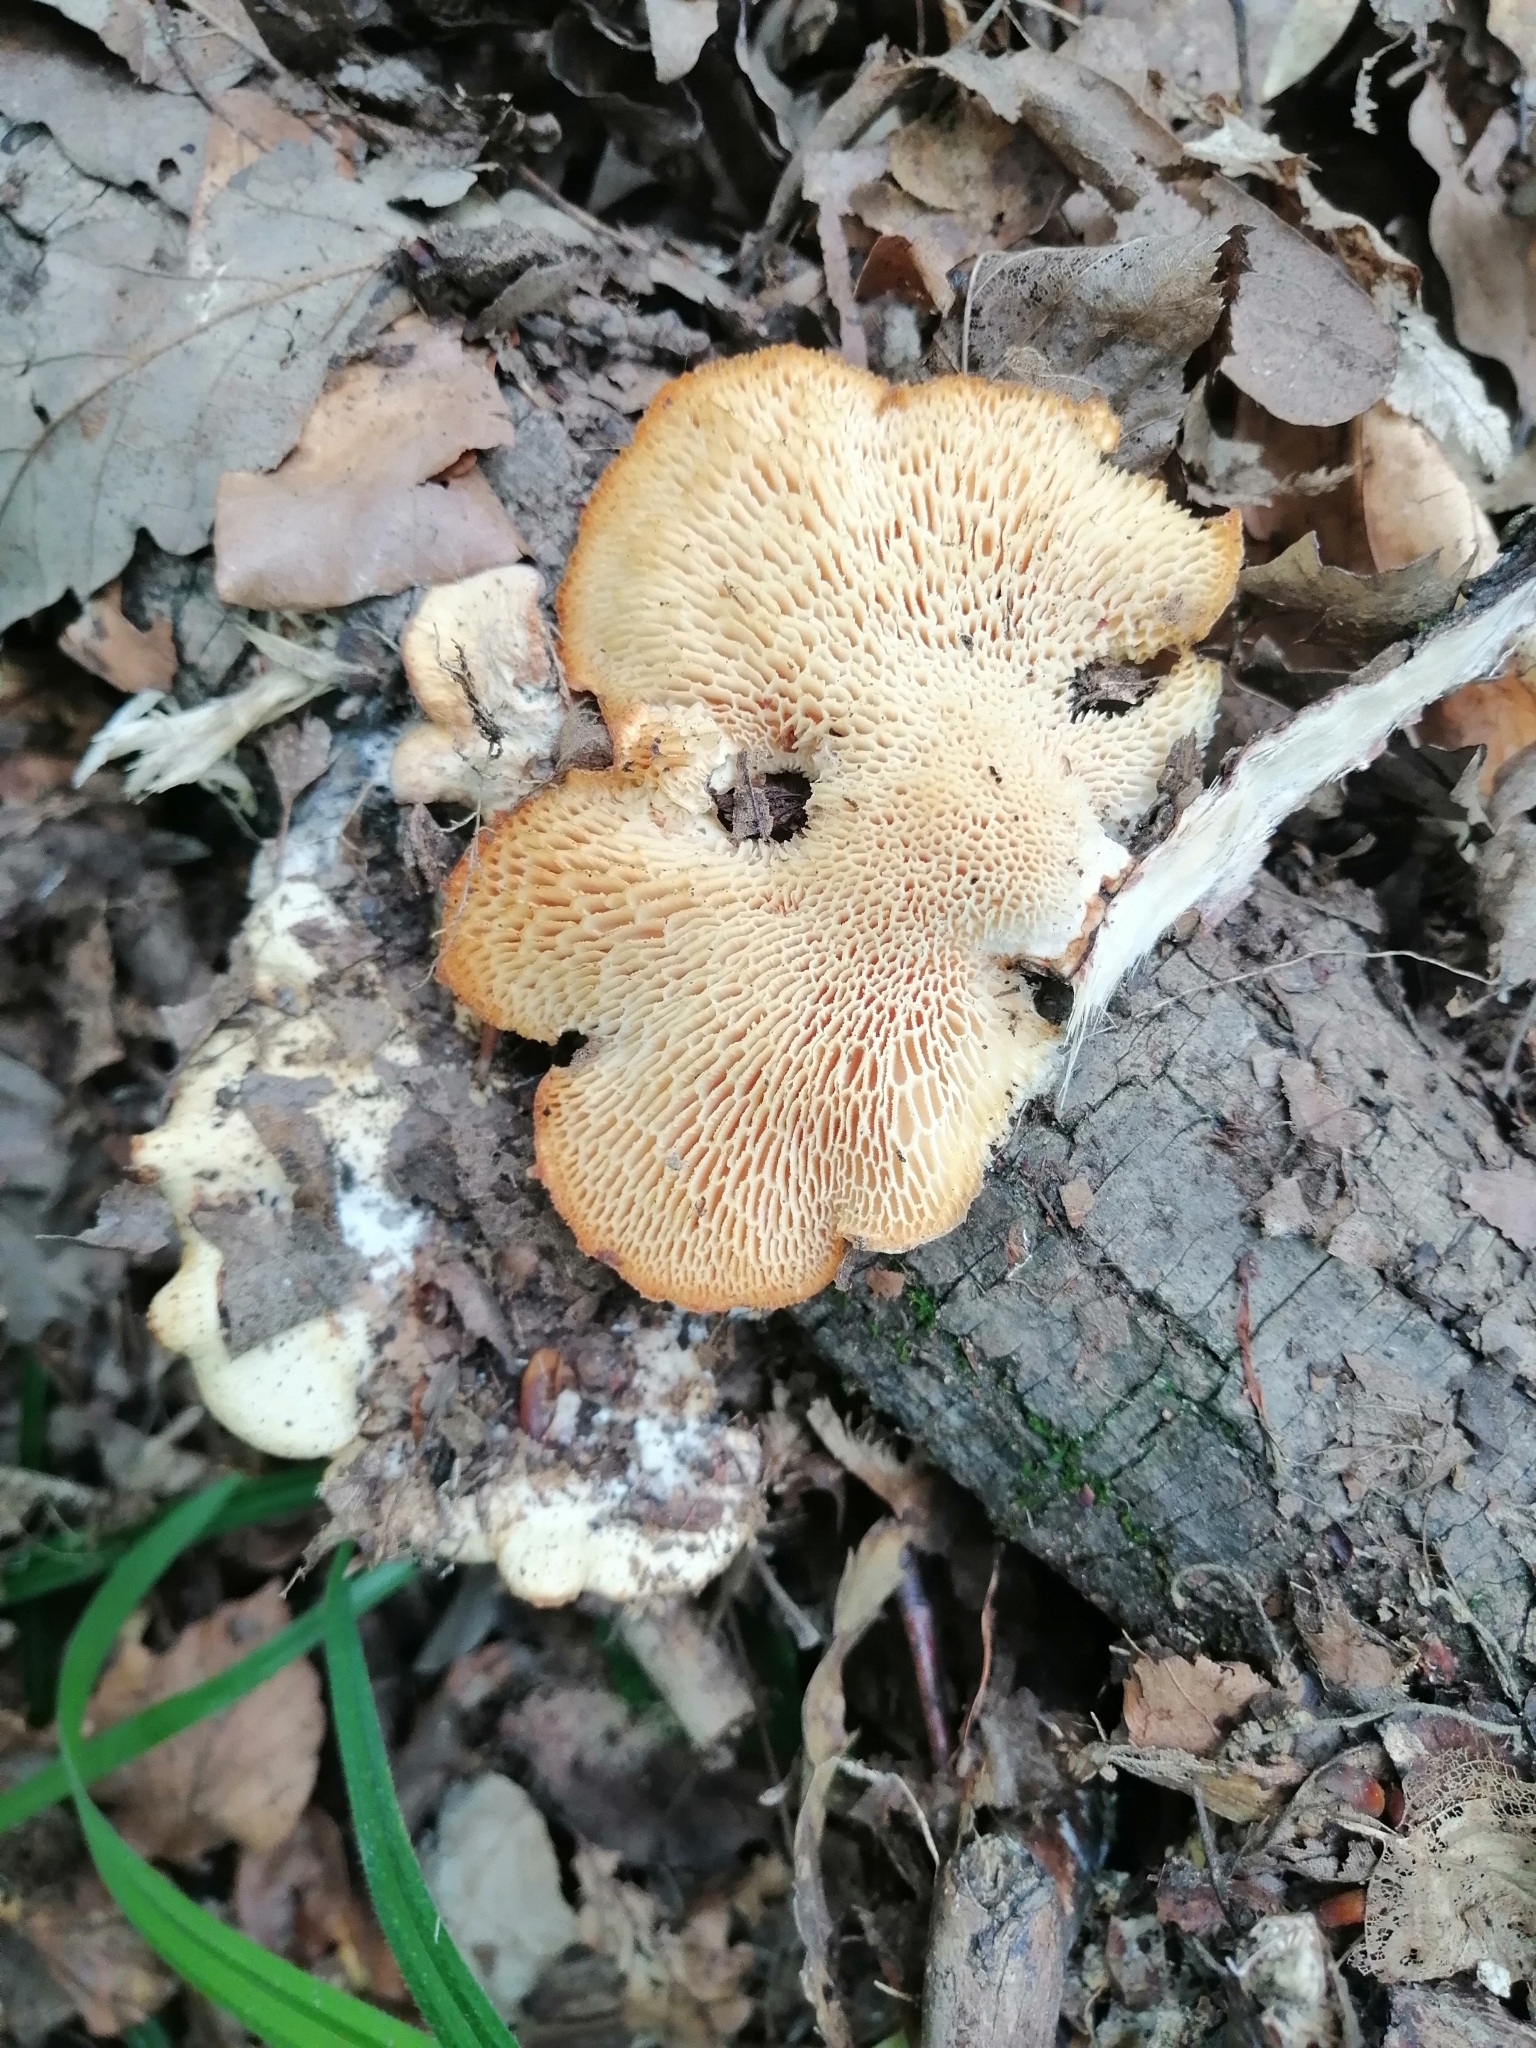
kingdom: Fungi
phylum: Basidiomycota
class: Agaricomycetes
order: Polyporales
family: Polyporaceae
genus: Neofavolus
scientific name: Neofavolus alveolaris
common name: Hexagonal-pored polypore
